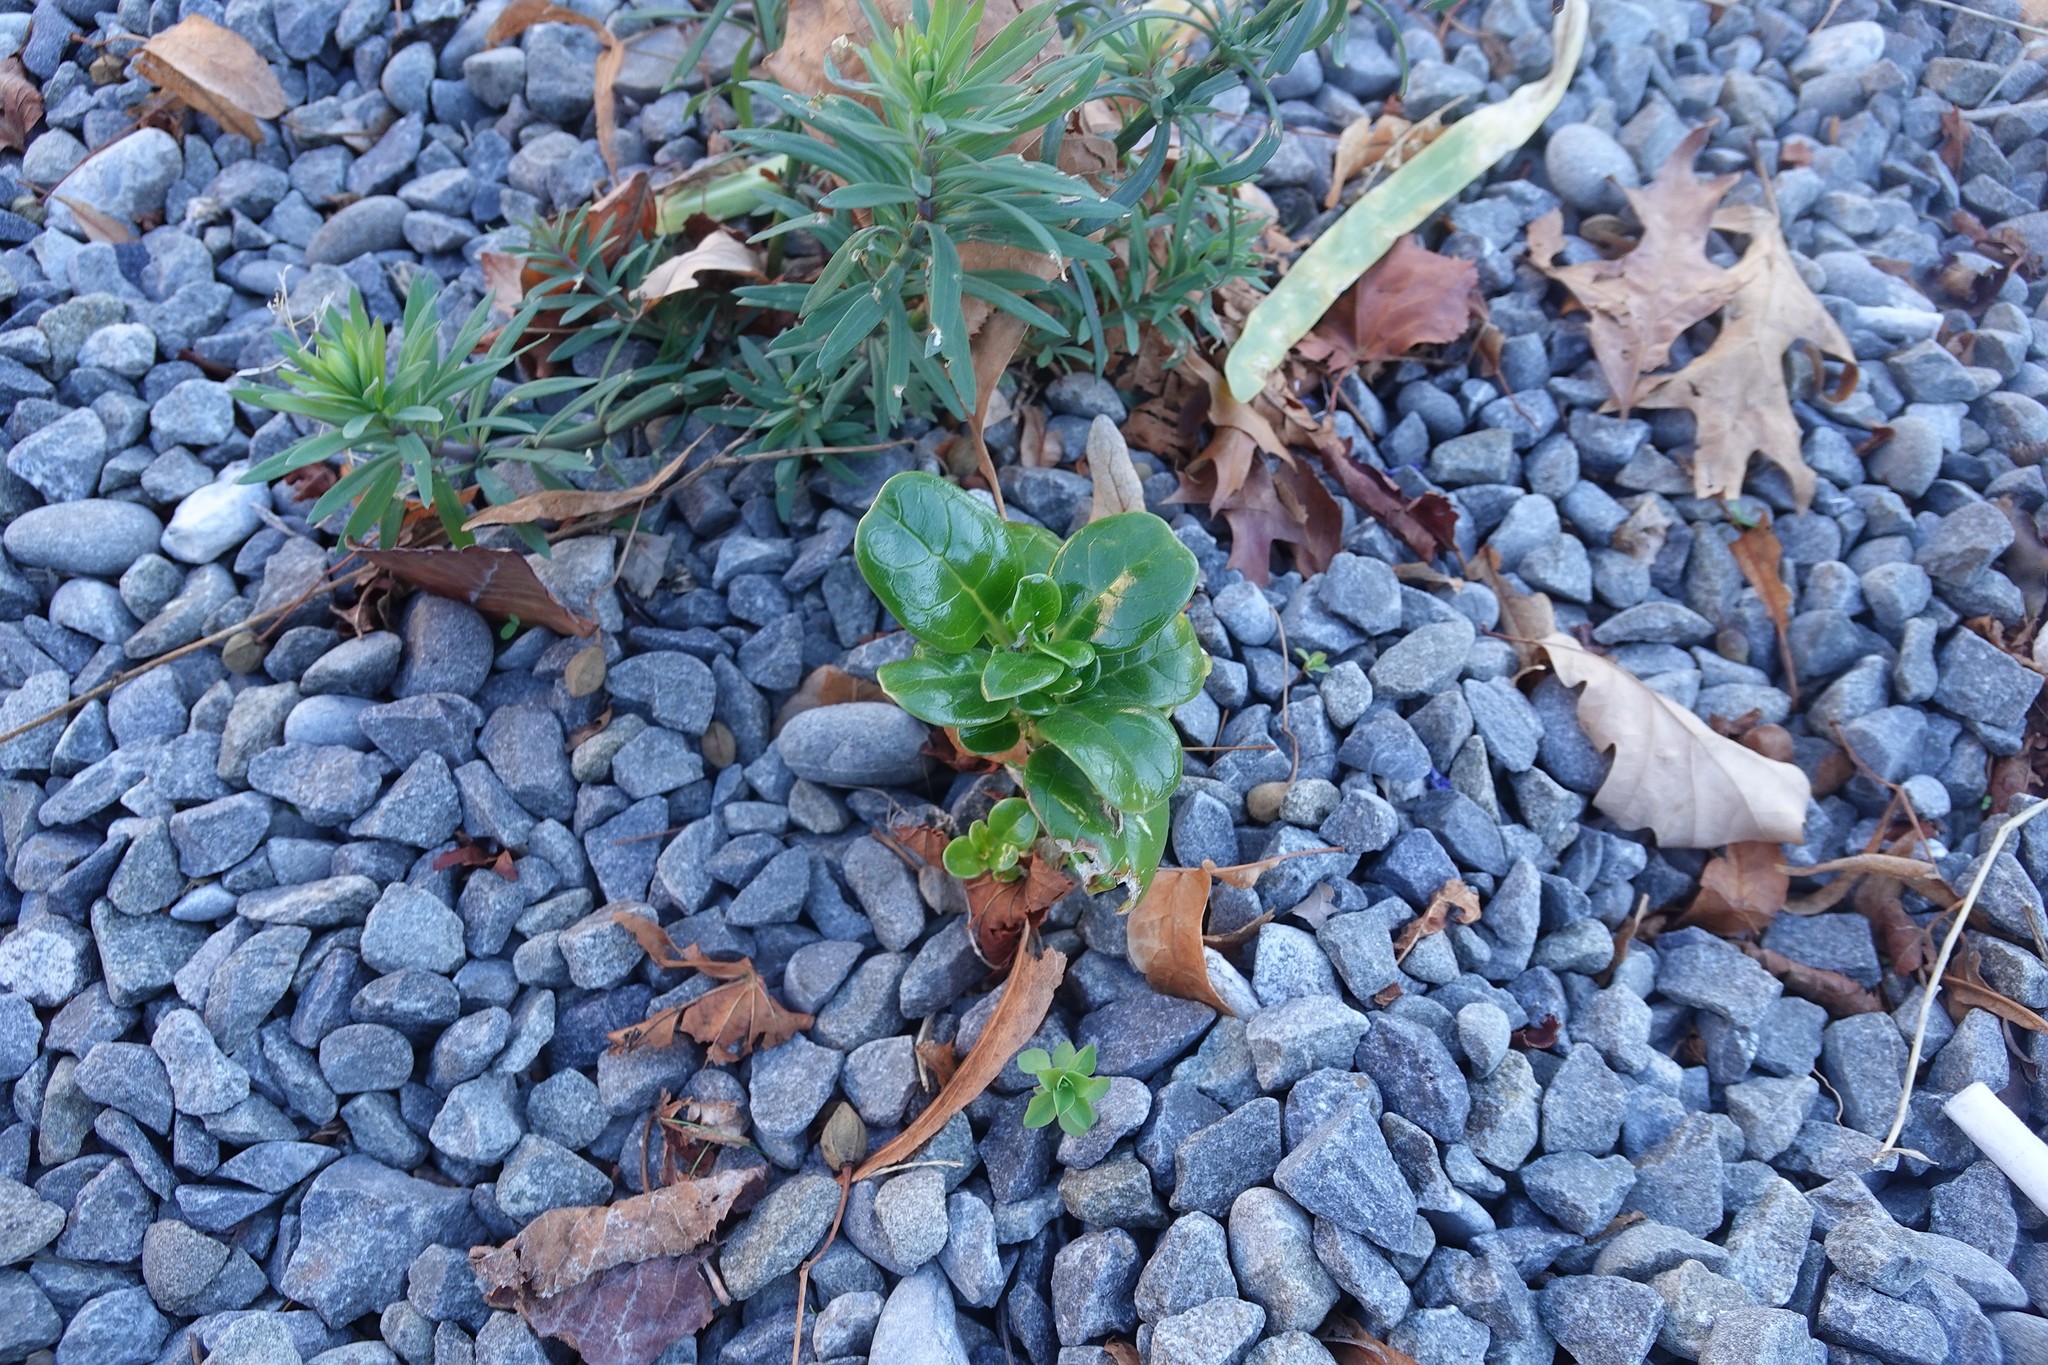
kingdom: Plantae
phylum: Tracheophyta
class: Magnoliopsida
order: Gentianales
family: Rubiaceae
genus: Coprosma
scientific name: Coprosma repens
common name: Tree bedstraw
